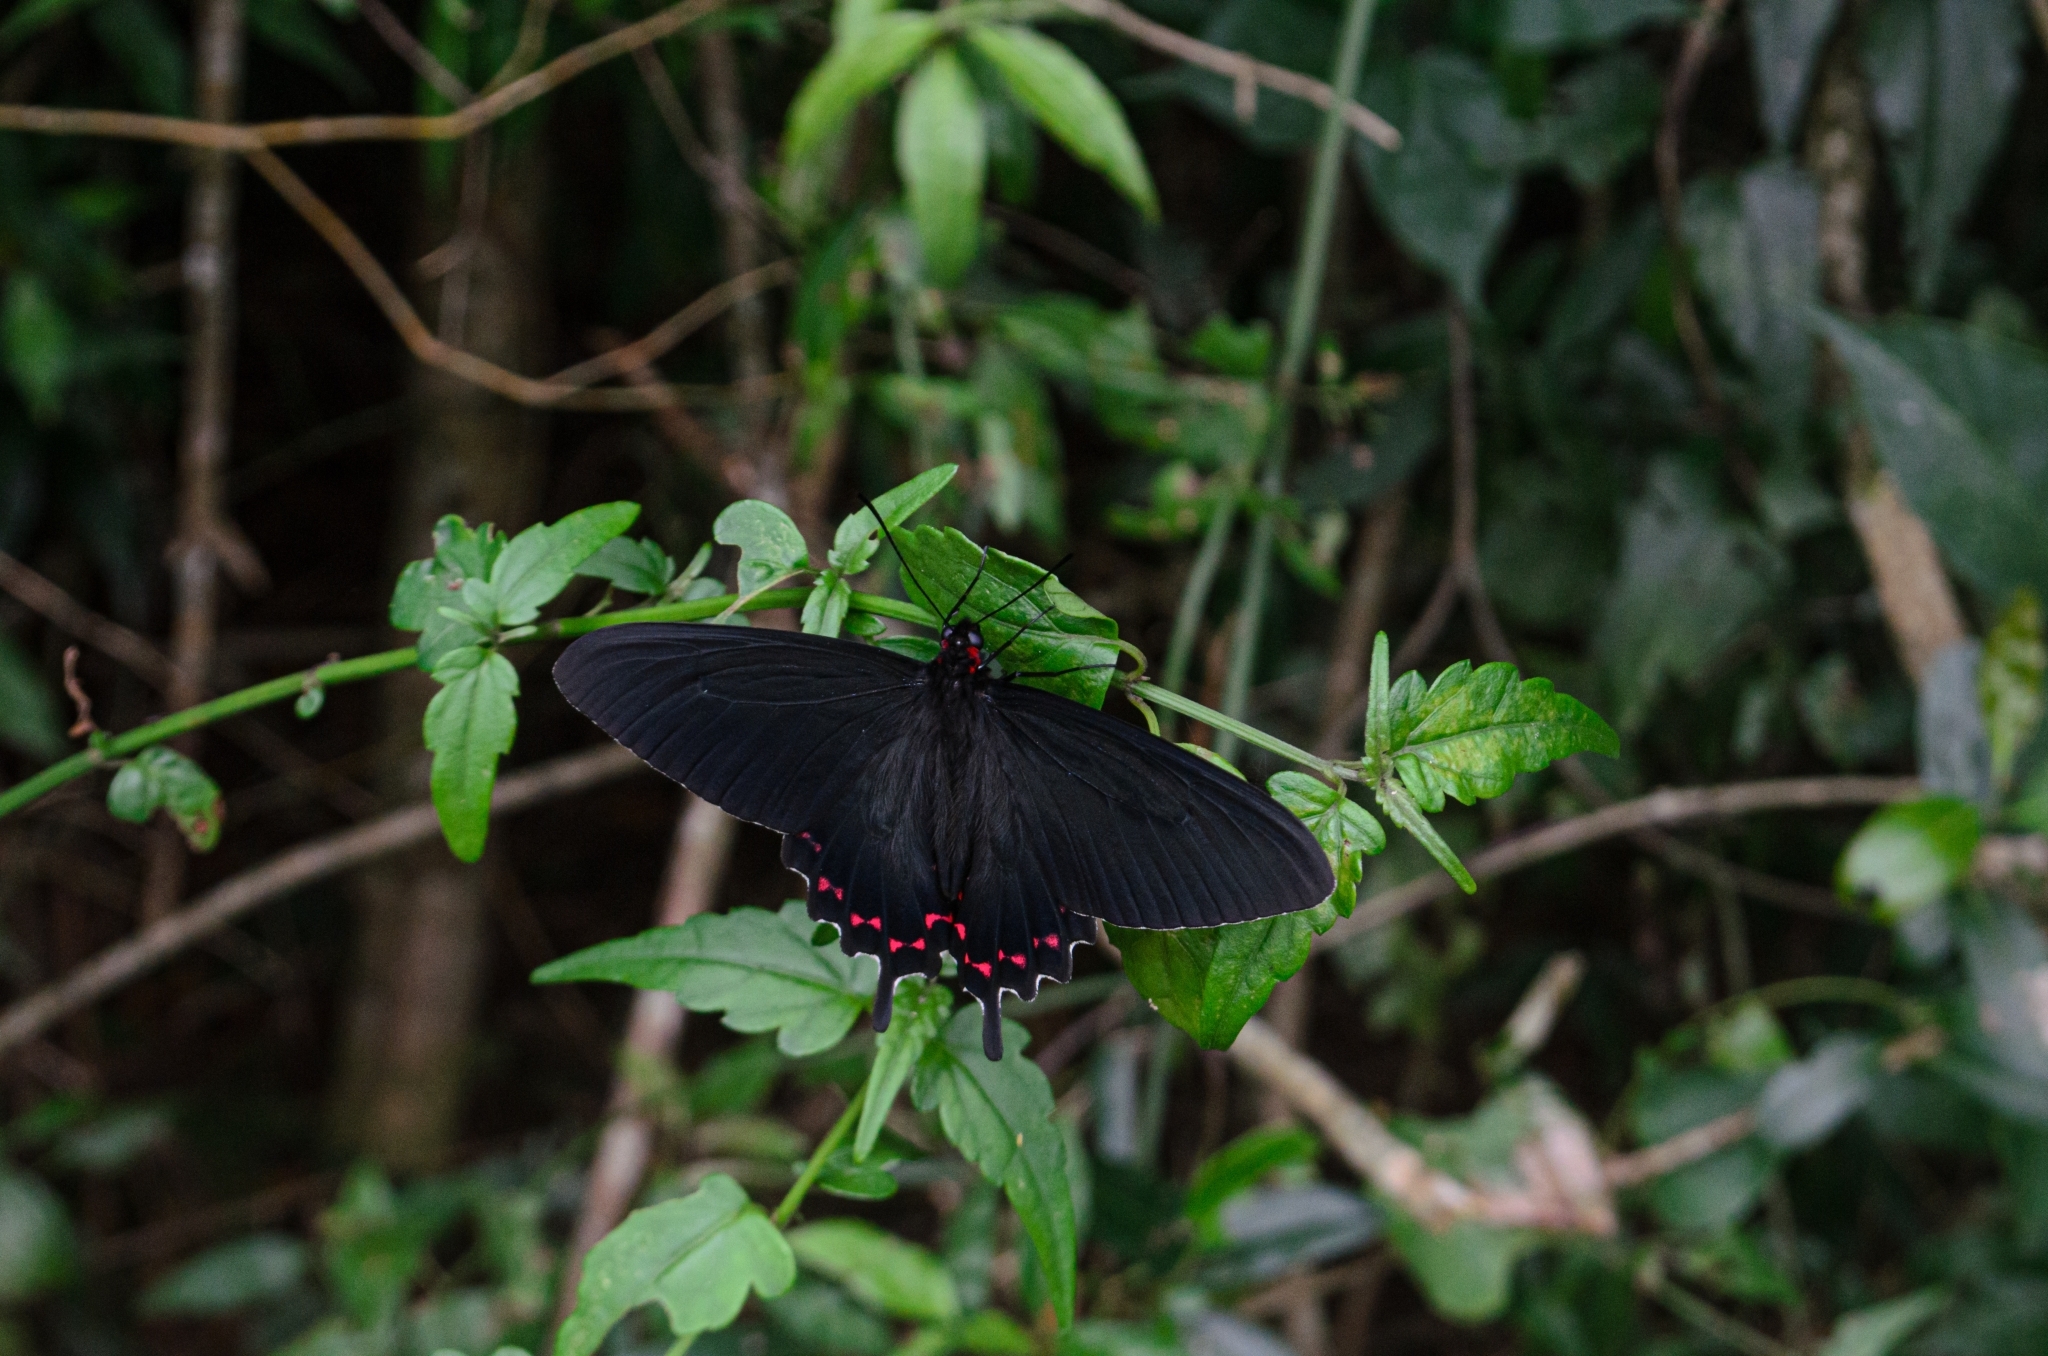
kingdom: Animalia
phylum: Arthropoda
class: Insecta
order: Lepidoptera
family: Papilionidae
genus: Parides
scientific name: Parides bunichus
